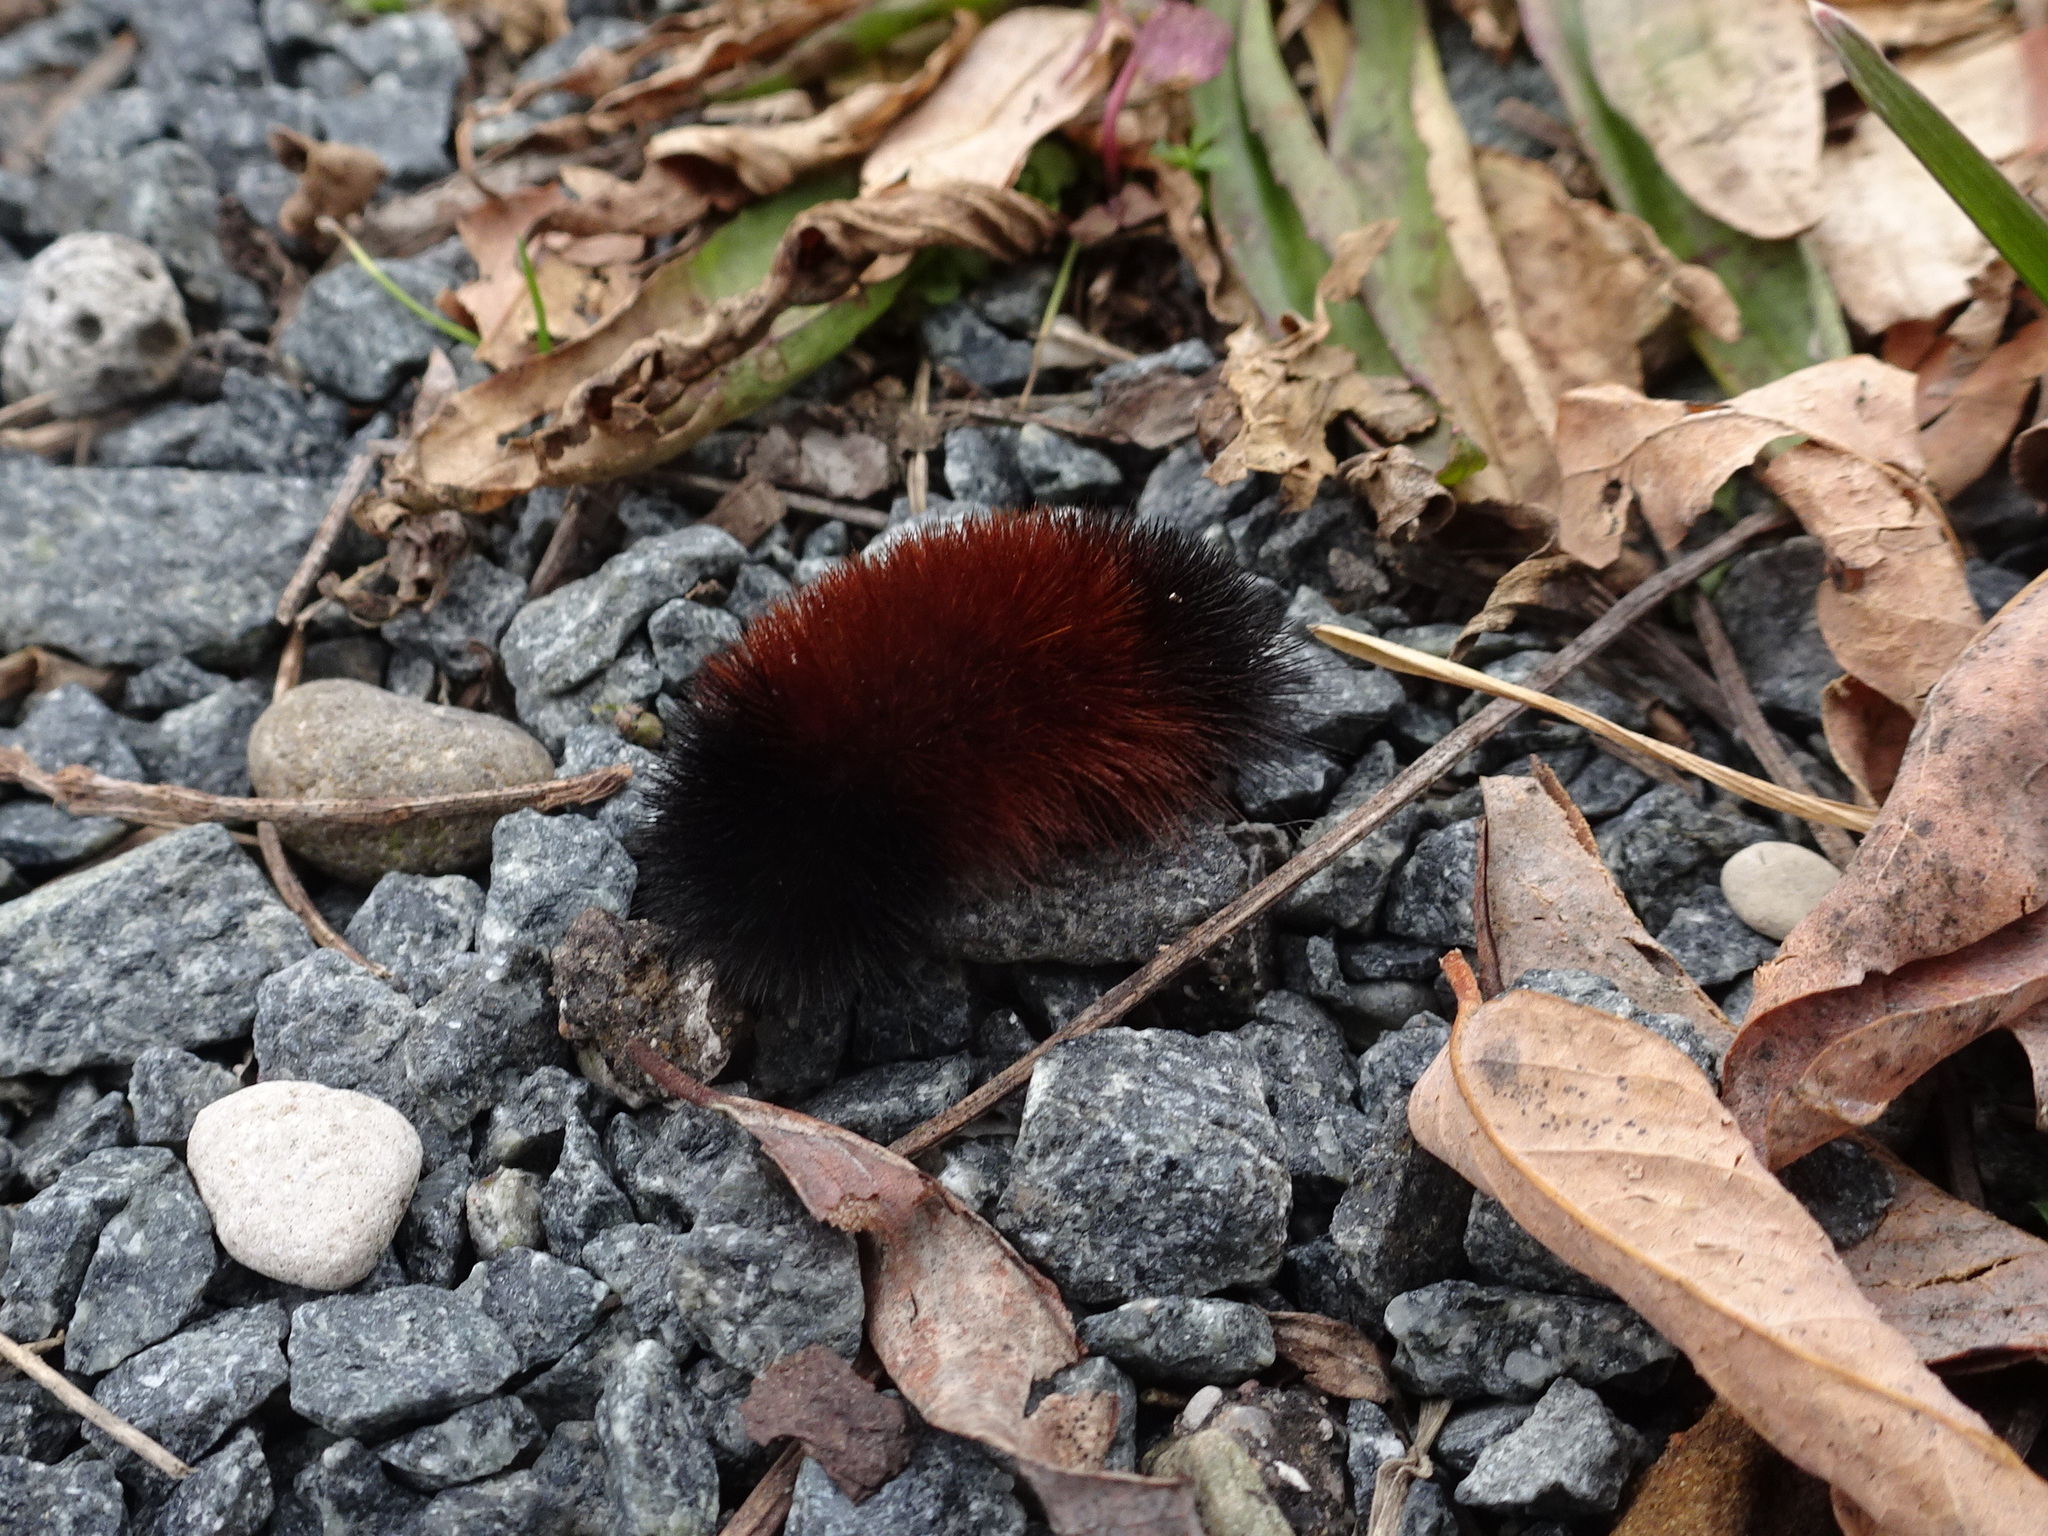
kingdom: Animalia
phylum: Arthropoda
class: Insecta
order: Lepidoptera
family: Erebidae
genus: Pyrrharctia
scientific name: Pyrrharctia isabella
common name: Isabella tiger moth
